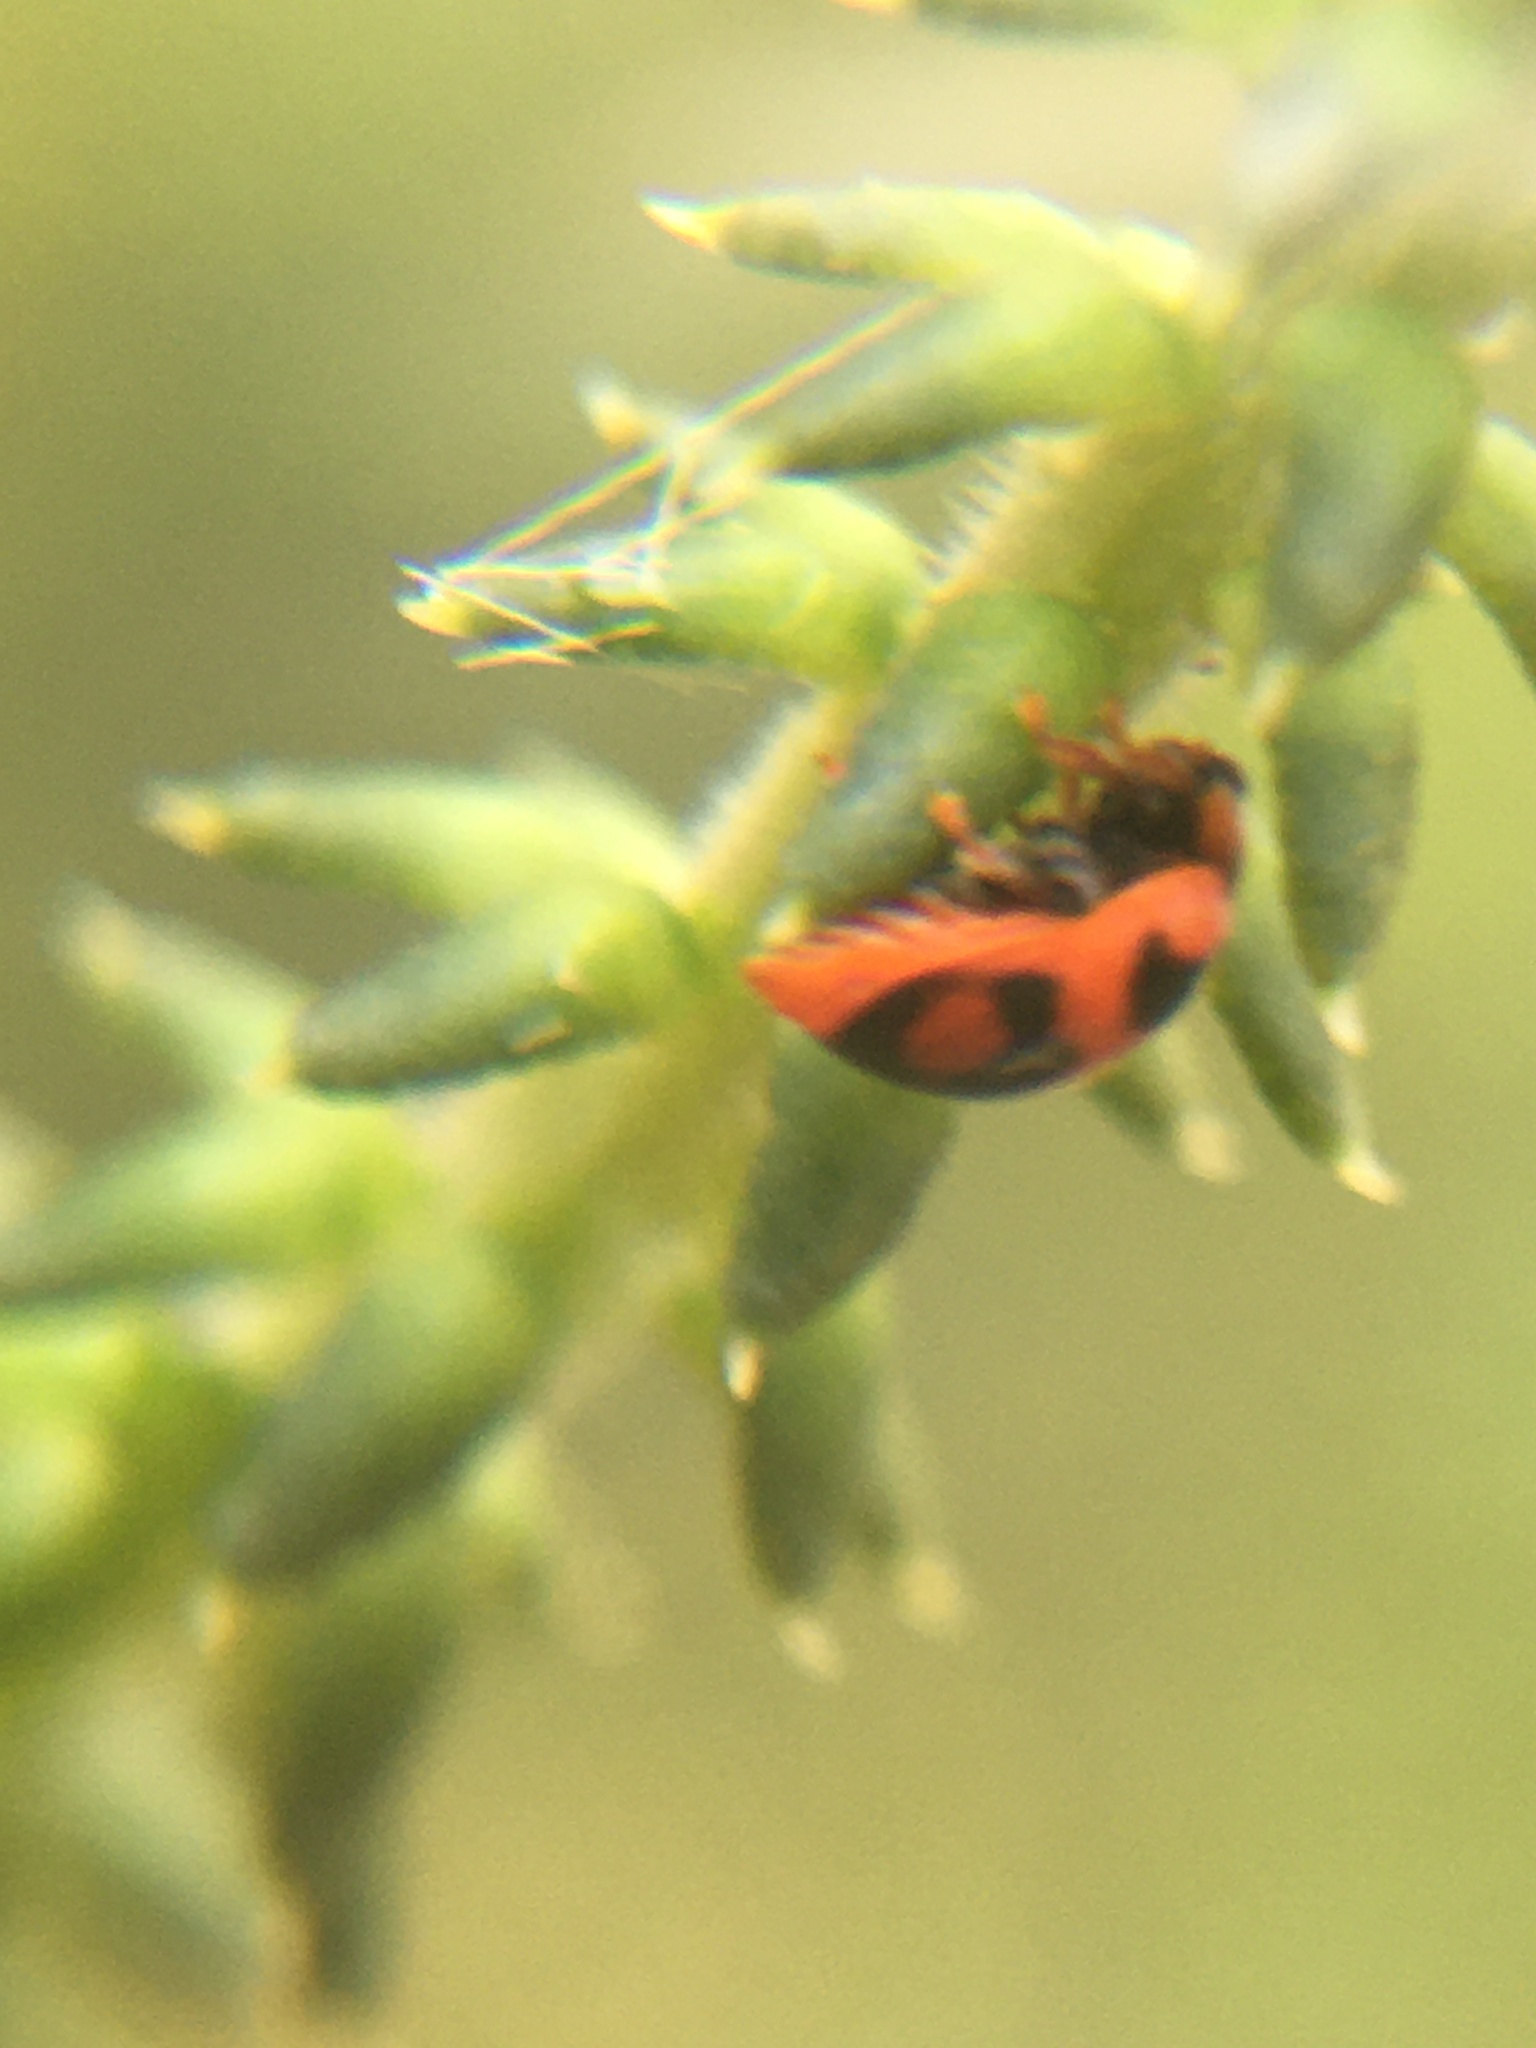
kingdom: Animalia
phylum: Arthropoda
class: Insecta
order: Coleoptera
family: Coccinellidae
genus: Novius
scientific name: Novius cardinalis
